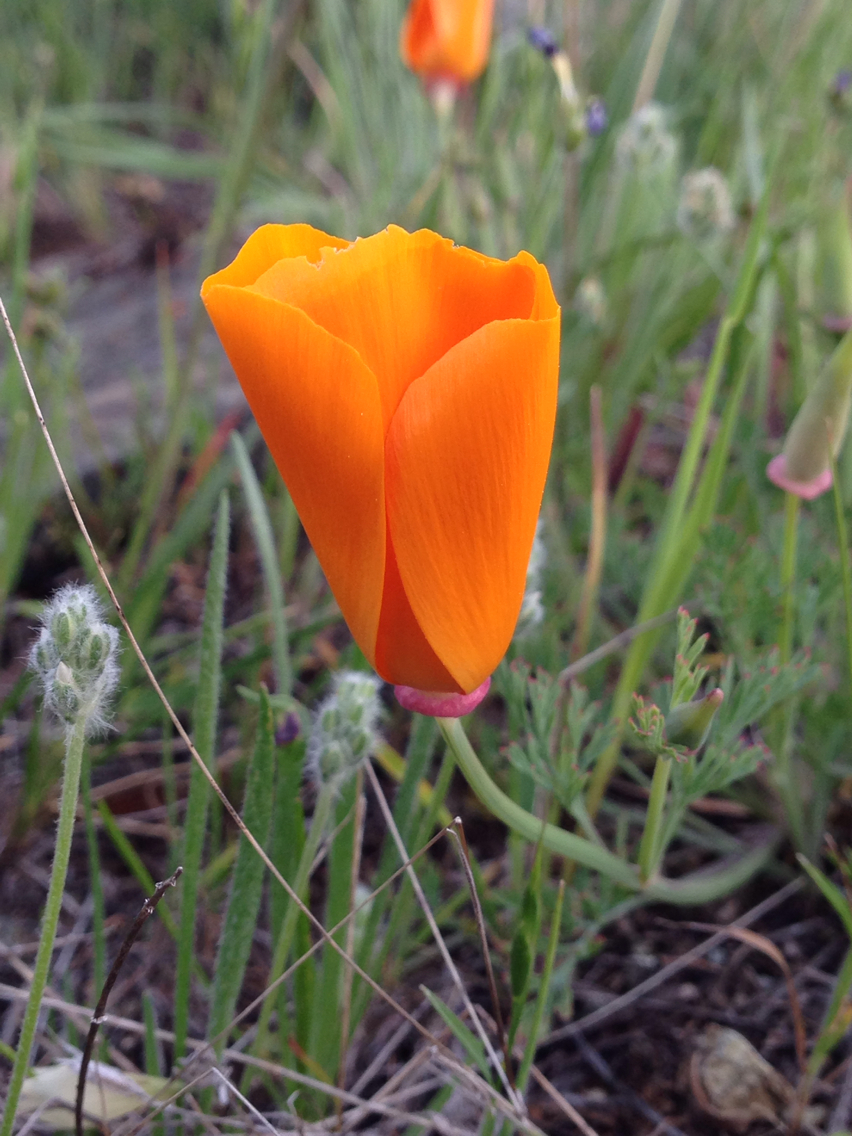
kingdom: Plantae
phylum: Tracheophyta
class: Magnoliopsida
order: Ranunculales
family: Papaveraceae
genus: Eschscholzia
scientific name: Eschscholzia californica
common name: California poppy
